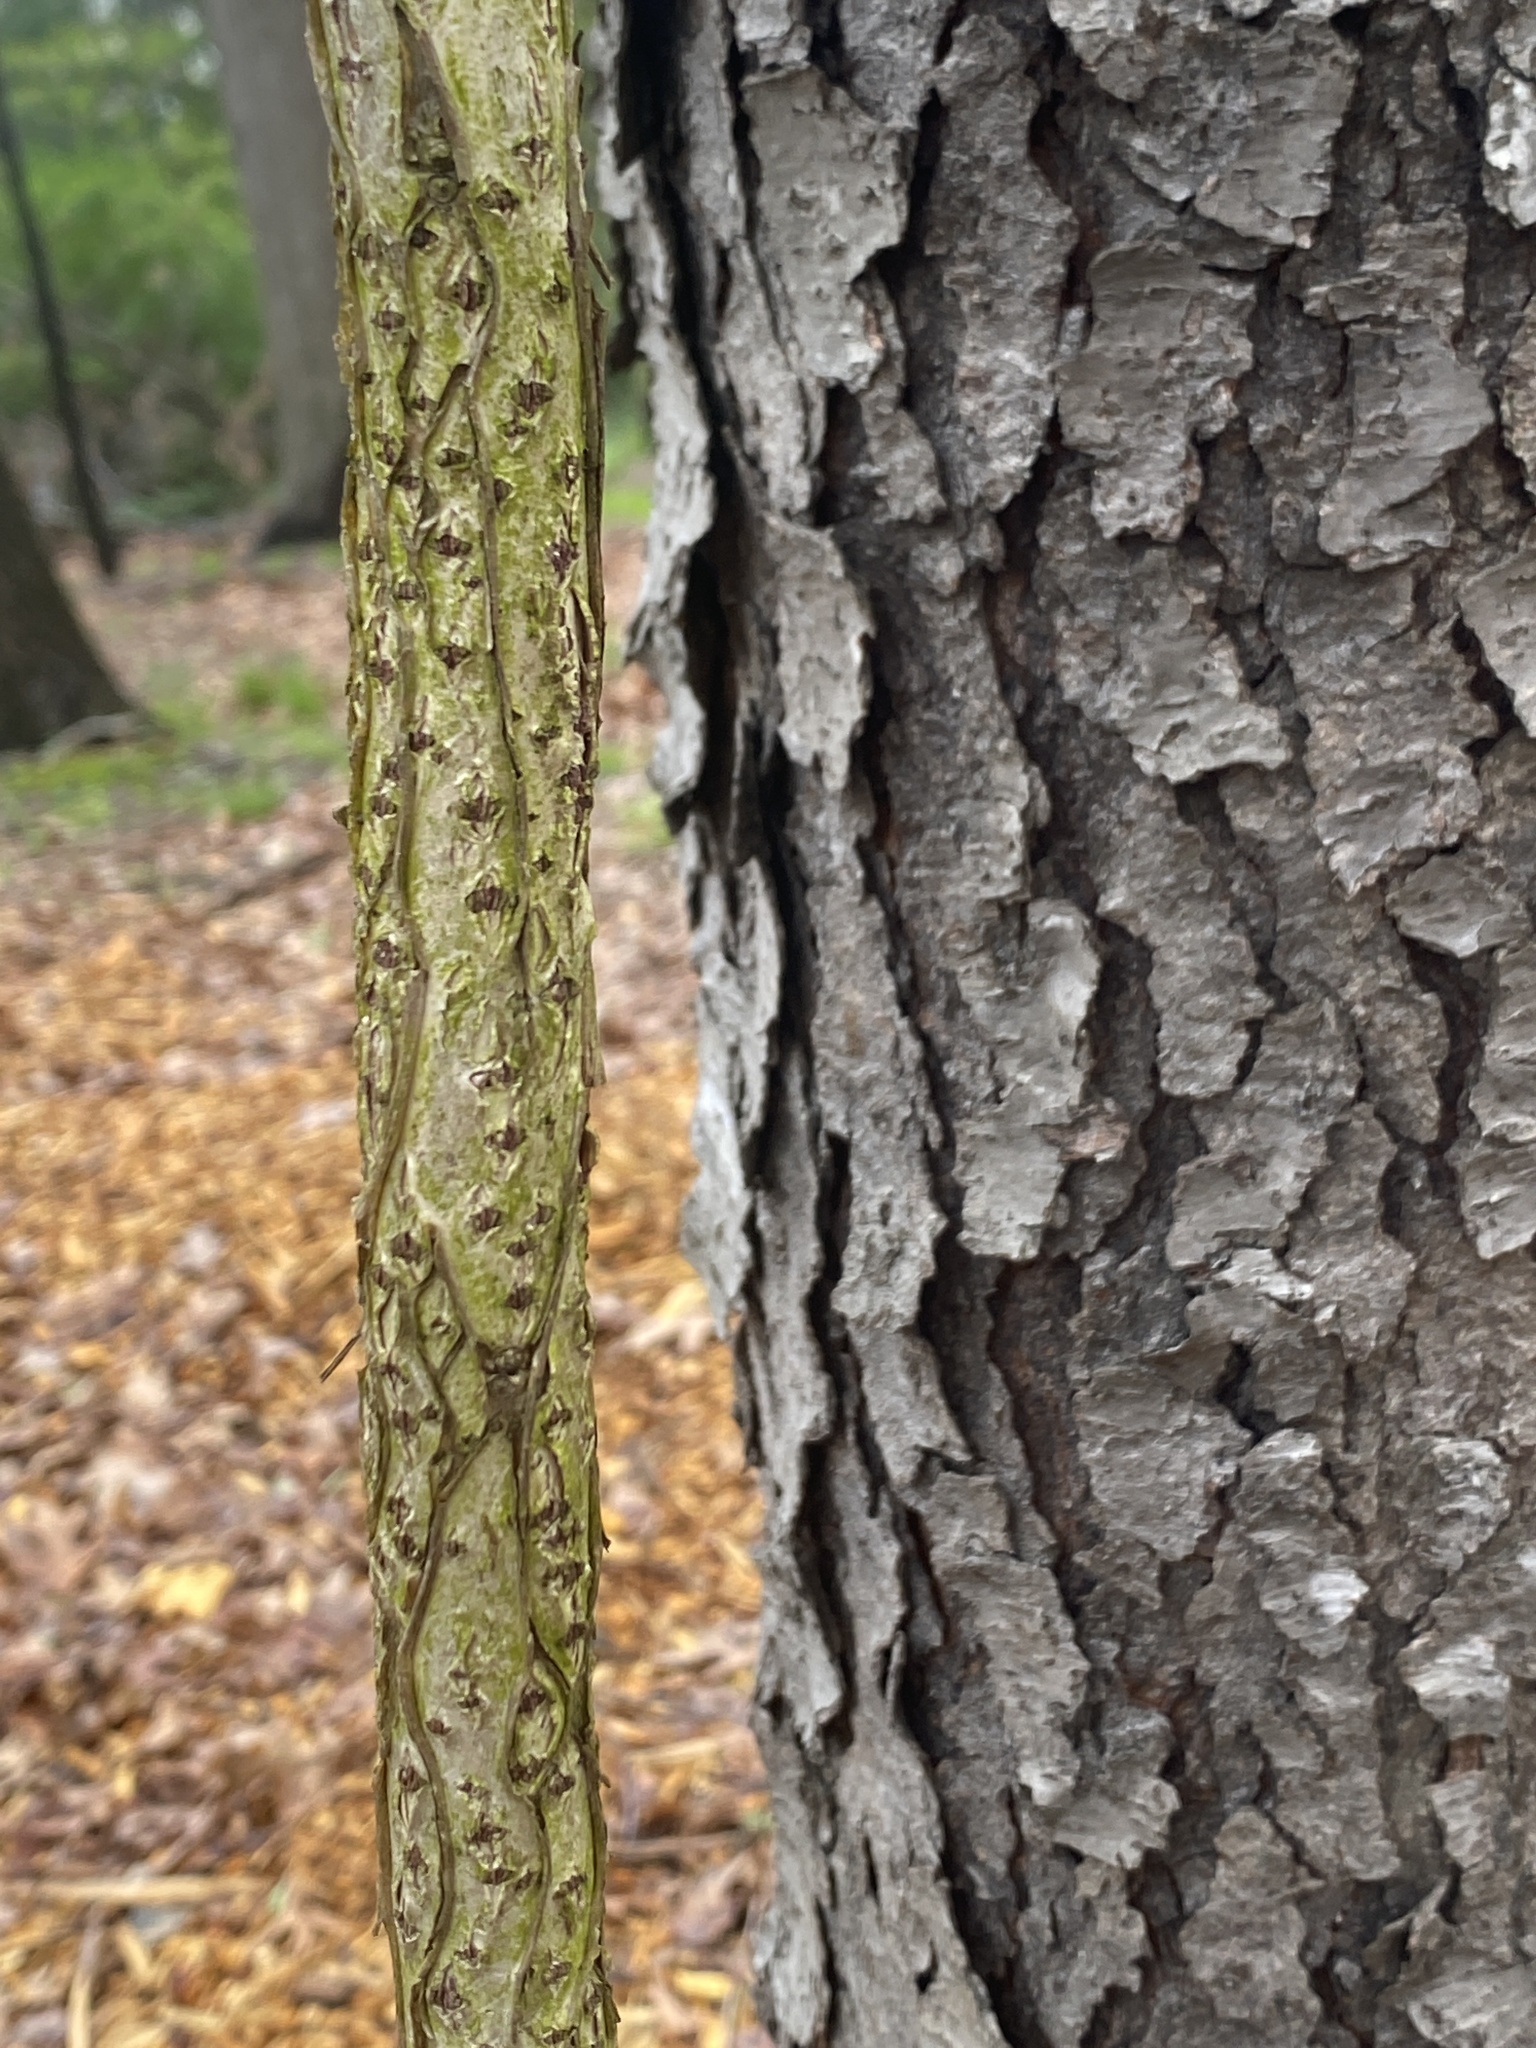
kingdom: Plantae
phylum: Tracheophyta
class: Magnoliopsida
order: Celastrales
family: Celastraceae
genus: Celastrus
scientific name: Celastrus orbiculatus
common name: Oriental bittersweet
